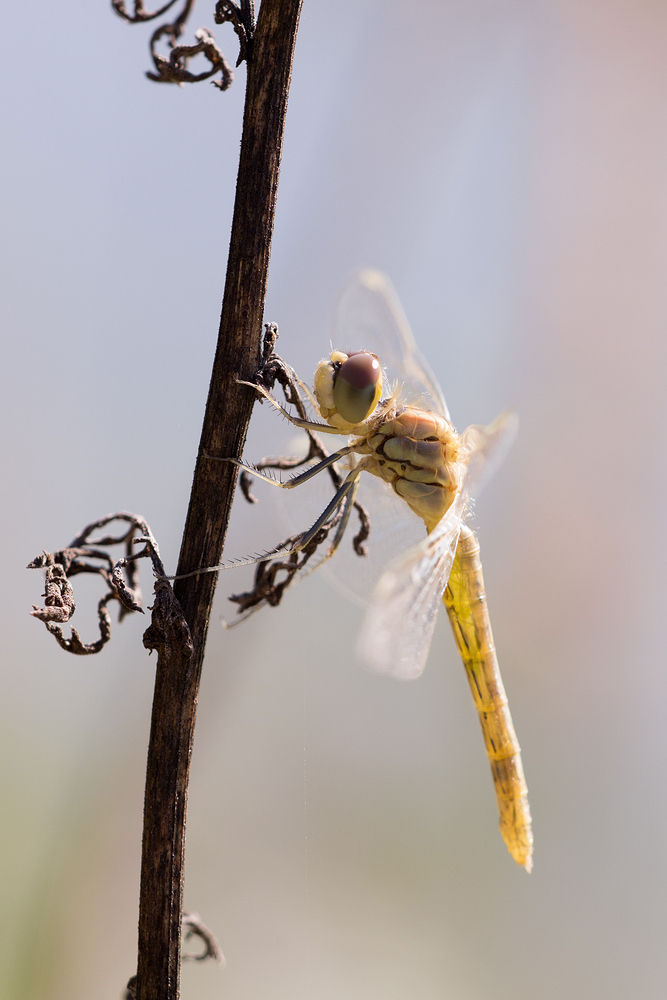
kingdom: Animalia
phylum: Arthropoda
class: Insecta
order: Odonata
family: Libellulidae
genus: Sympetrum
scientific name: Sympetrum fonscolombii
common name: Red-veined darter
